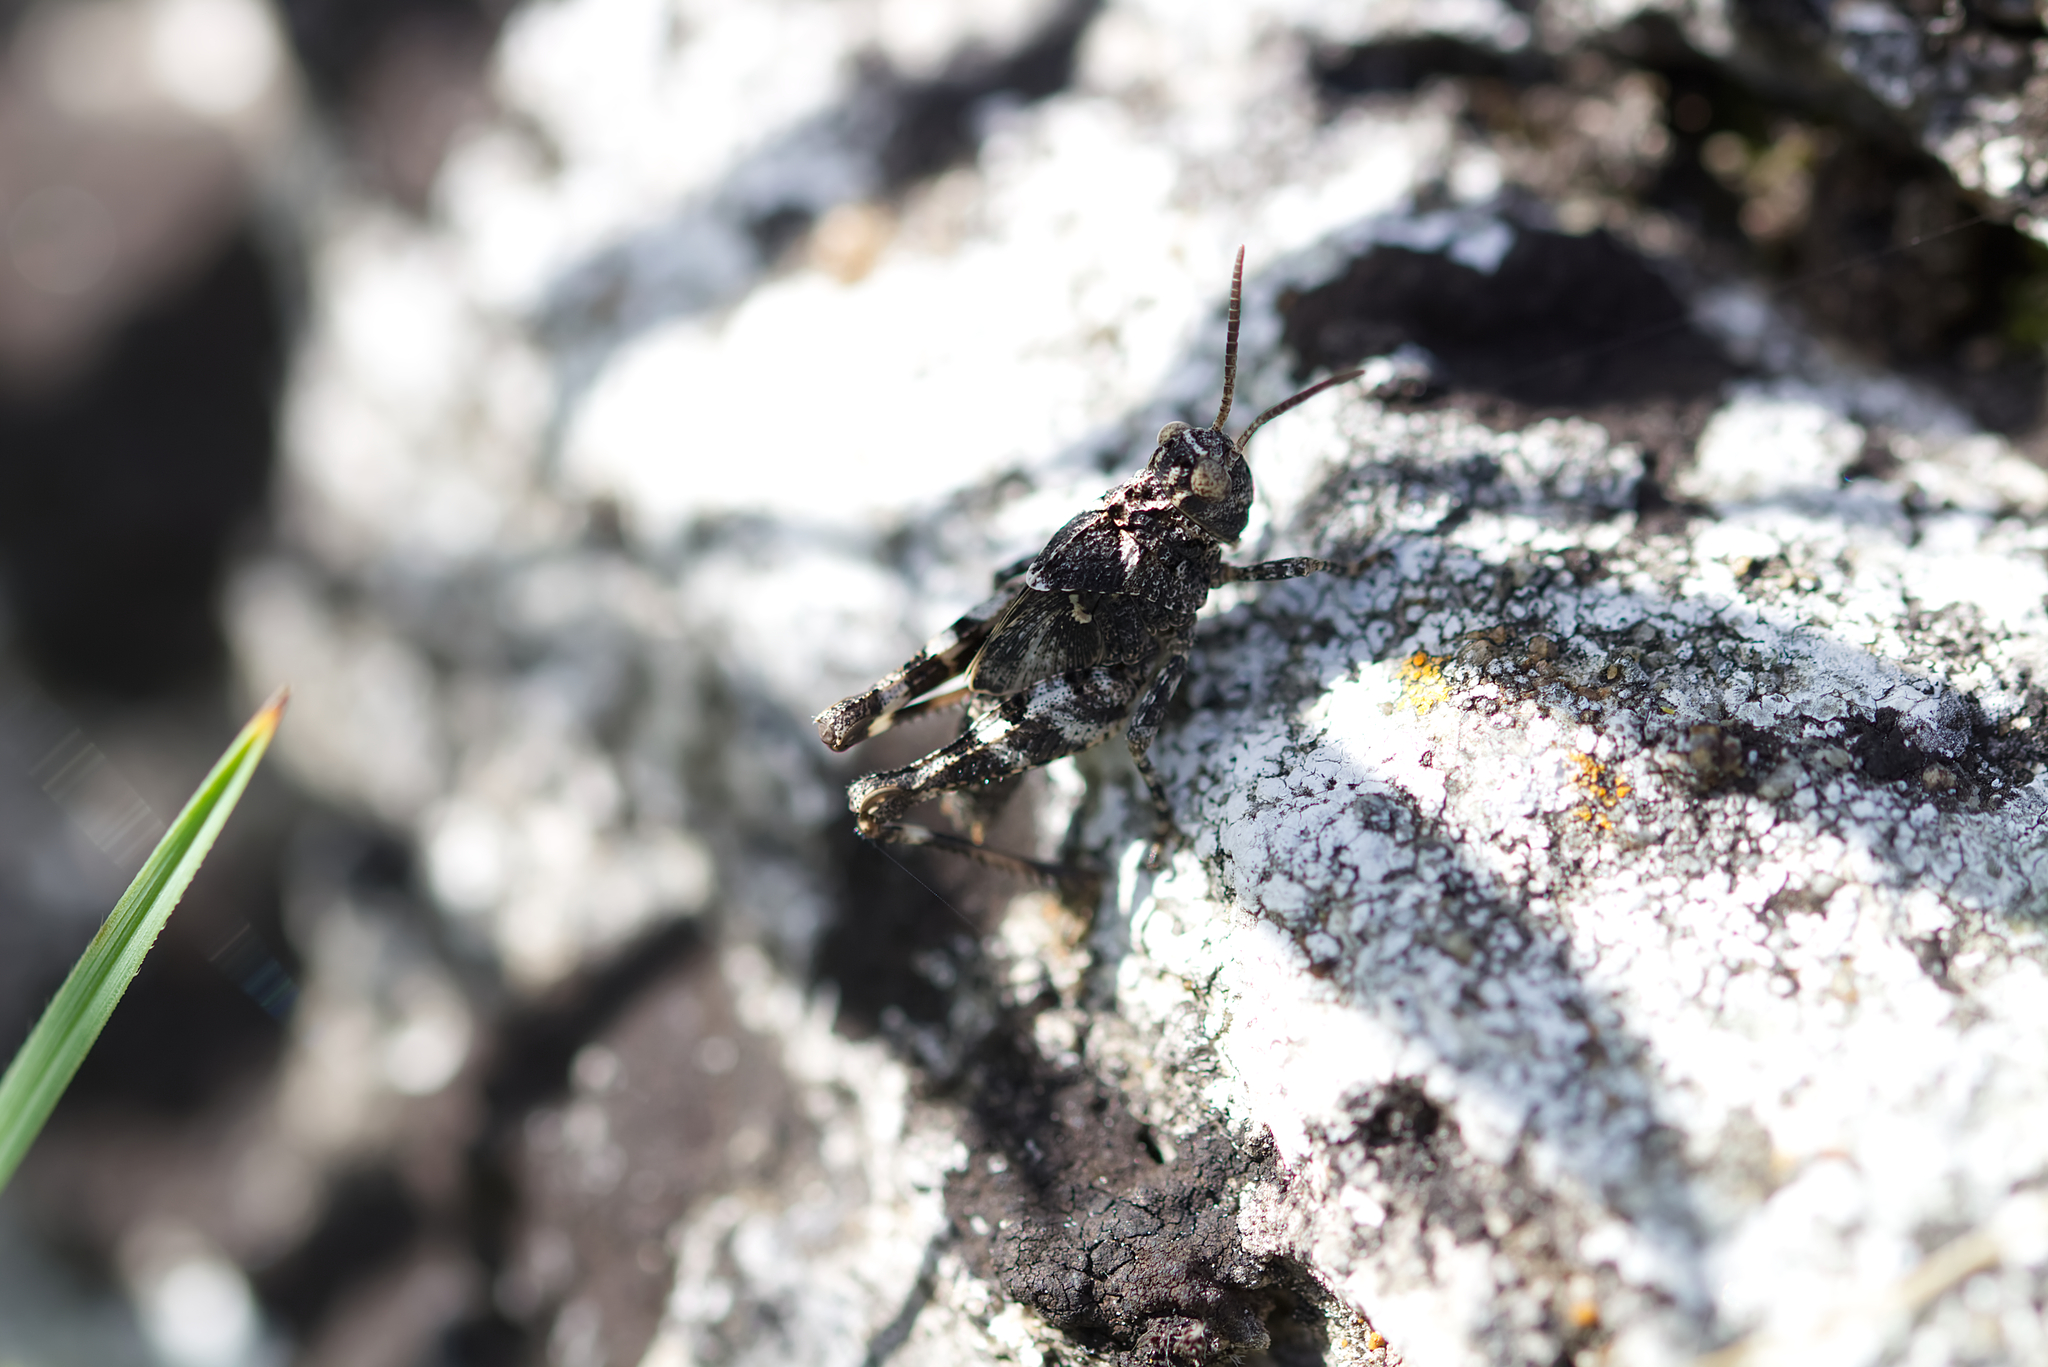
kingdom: Animalia
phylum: Arthropoda
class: Insecta
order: Orthoptera
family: Acrididae
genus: Oedipoda
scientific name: Oedipoda caerulescens
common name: Blue-winged grasshopper
